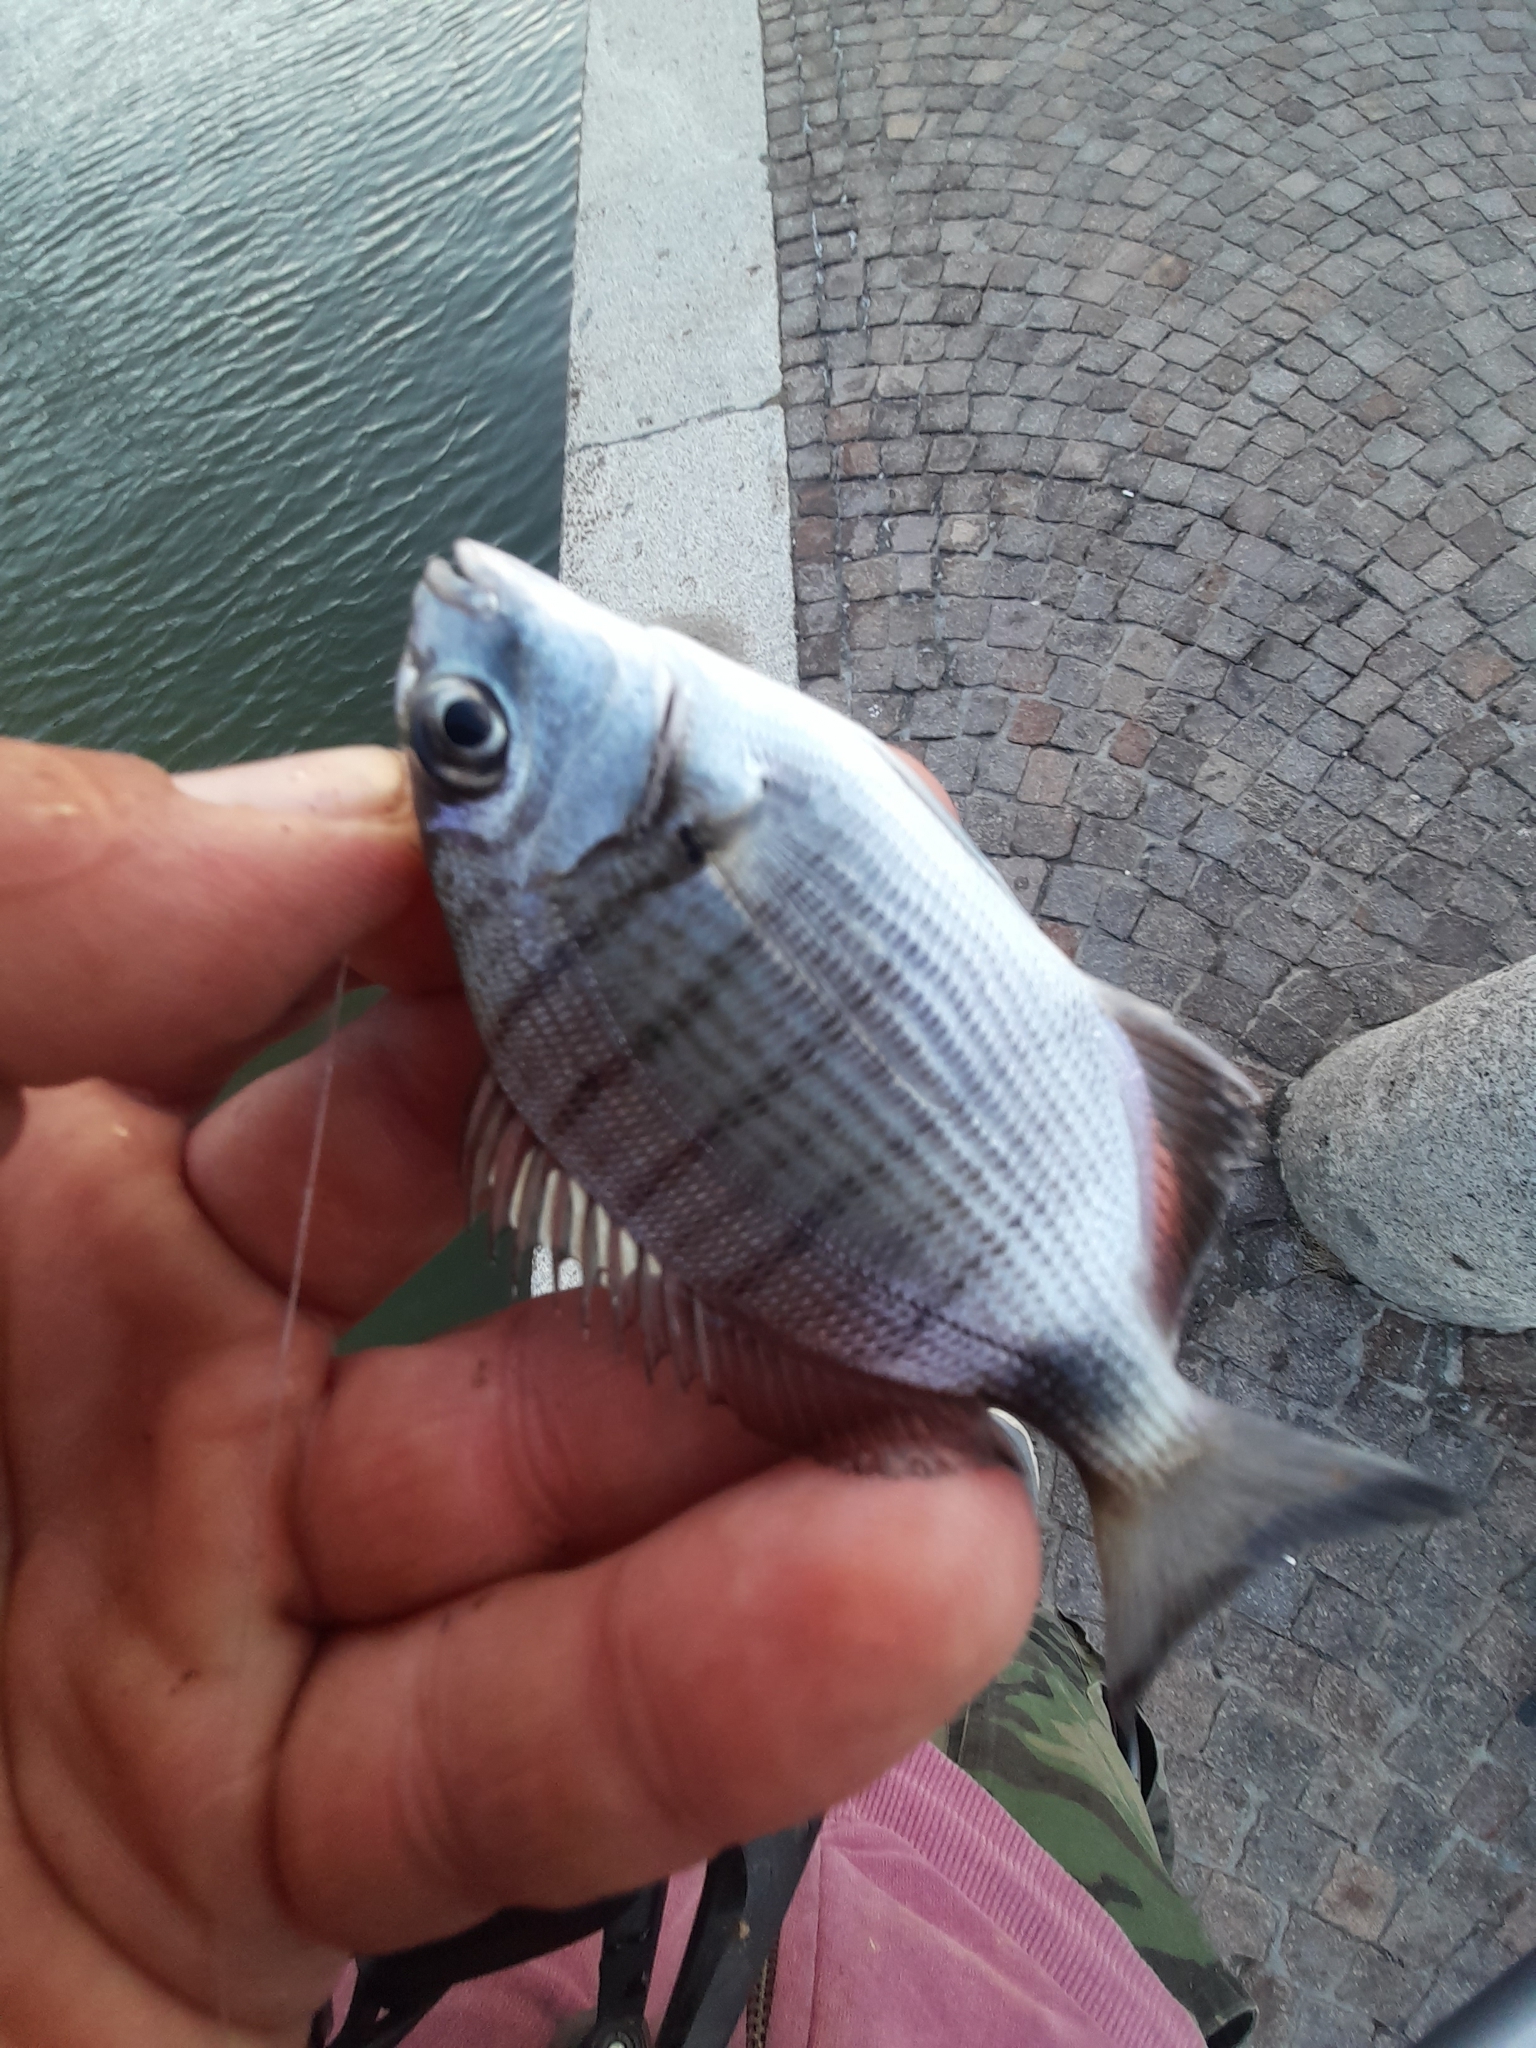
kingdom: Animalia
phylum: Chordata
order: Perciformes
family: Sparidae
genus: Diplodus
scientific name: Diplodus sargus
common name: White seabream
